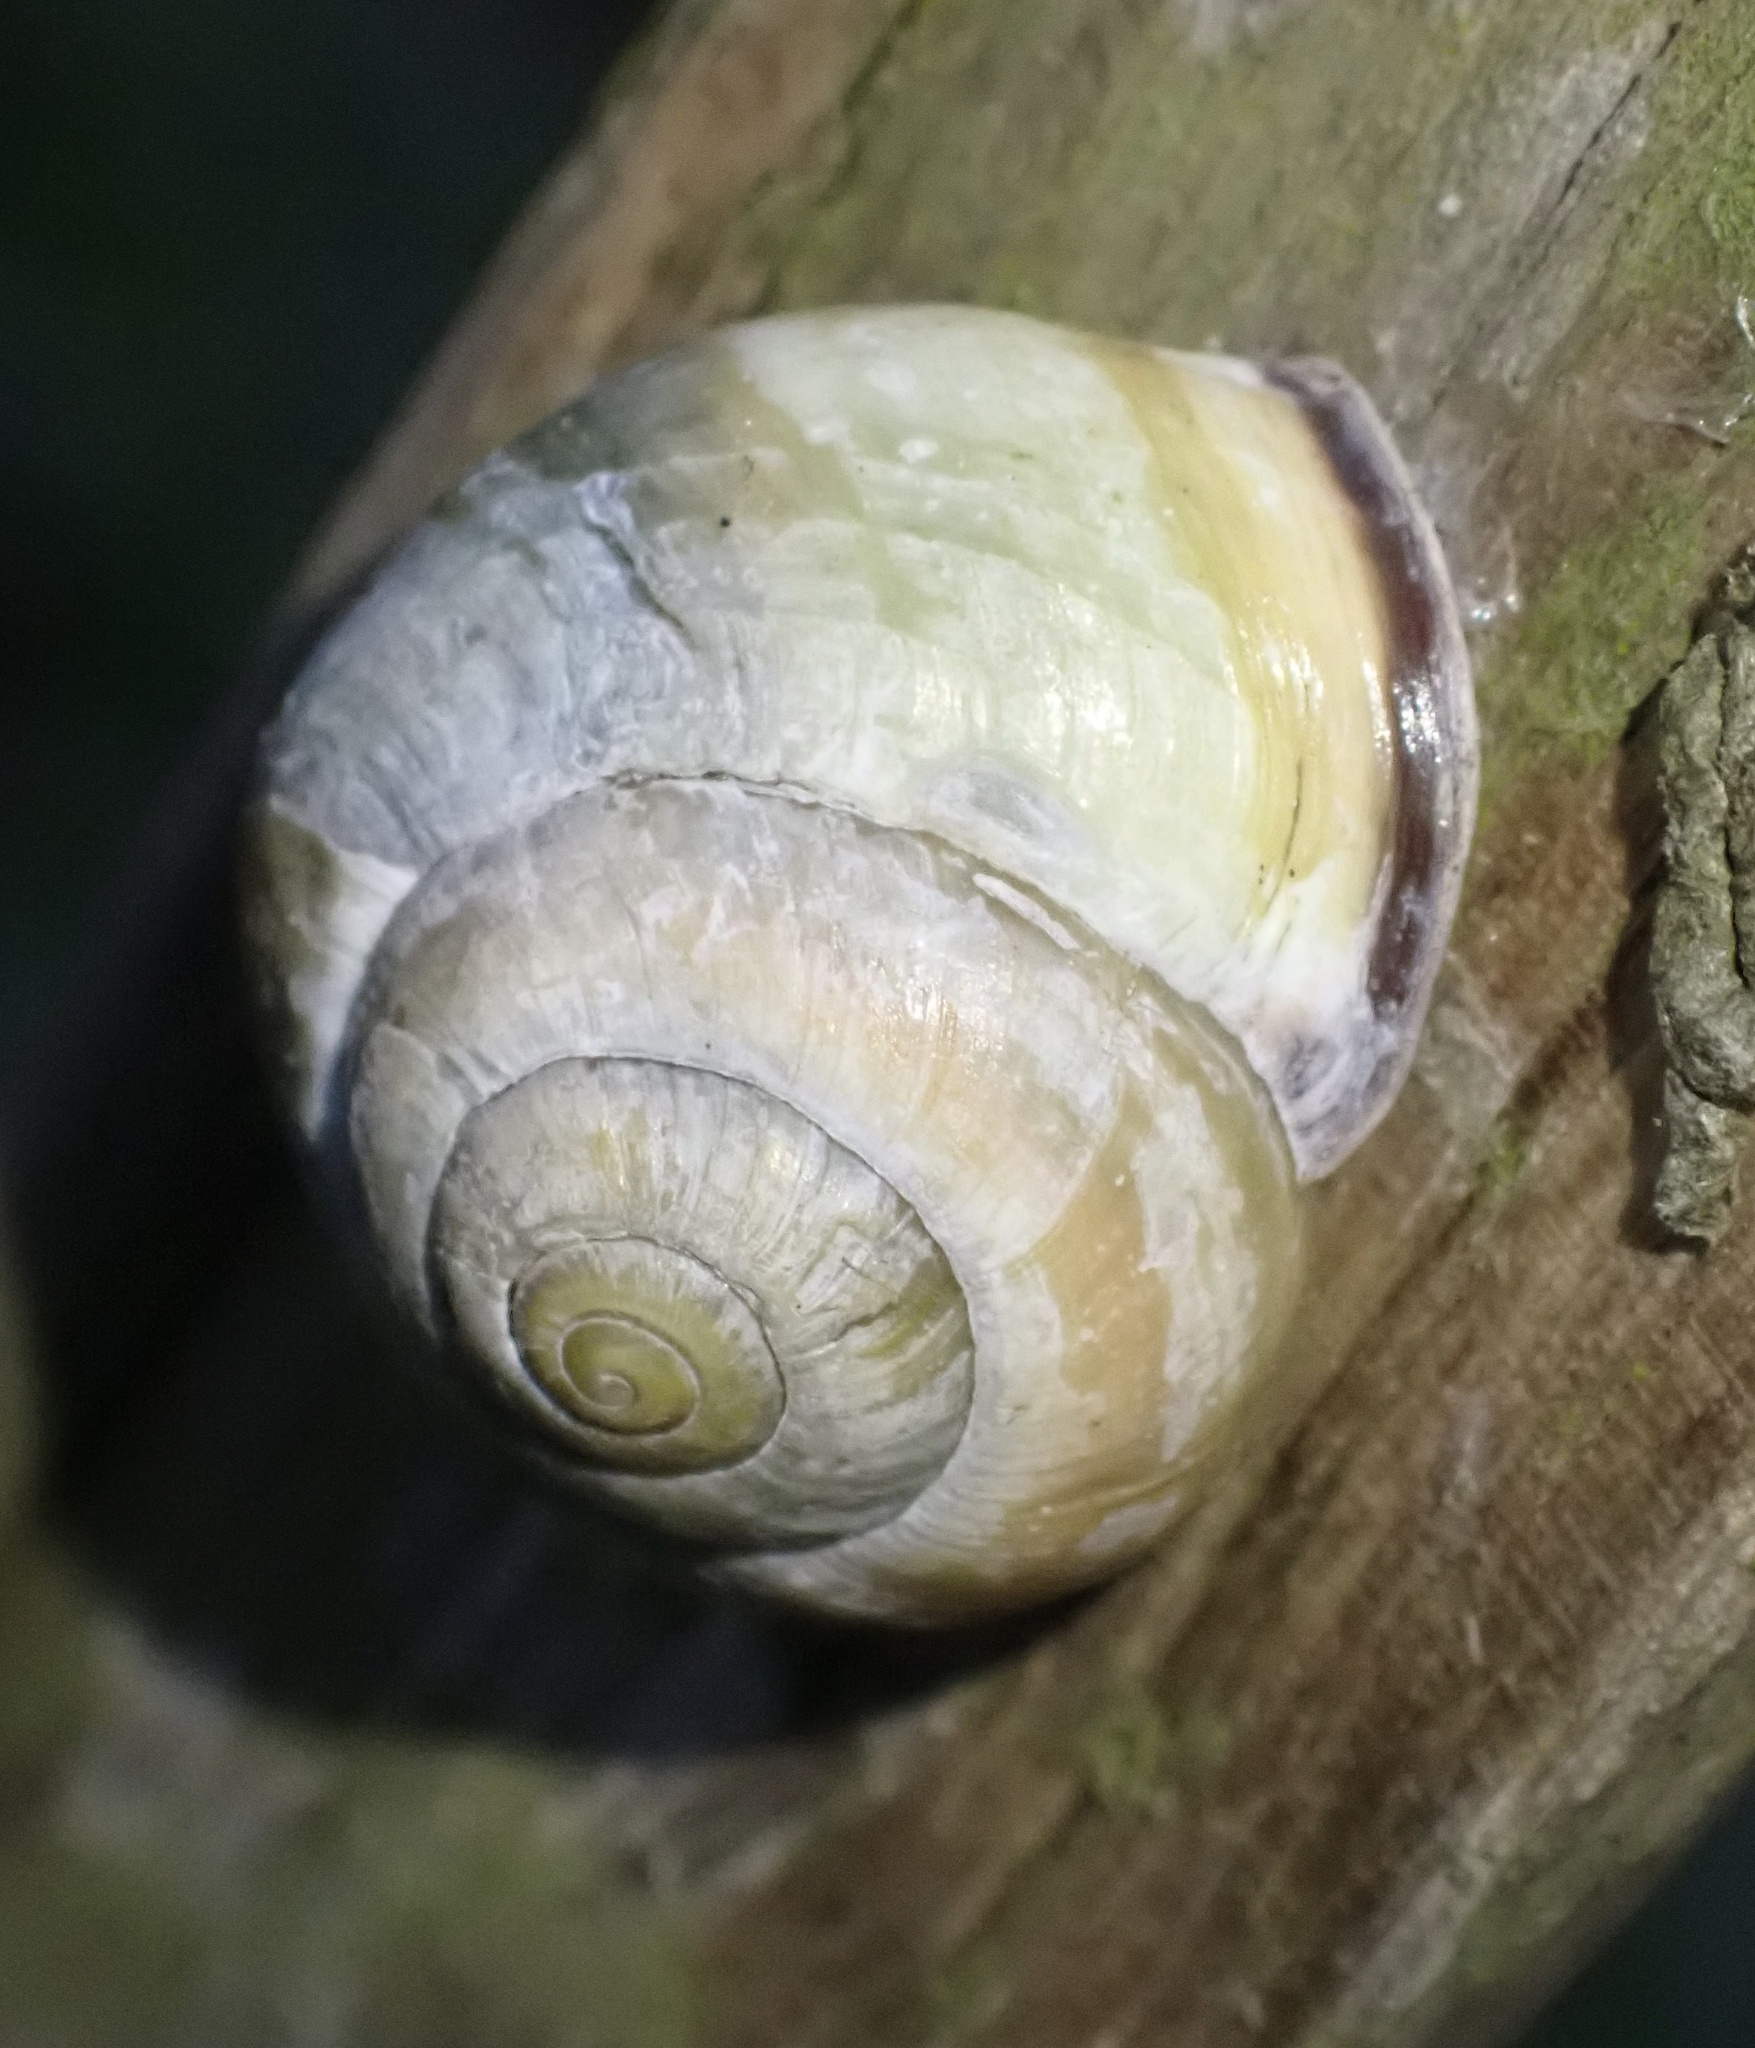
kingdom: Animalia
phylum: Mollusca
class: Gastropoda
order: Stylommatophora
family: Helicidae
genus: Cepaea
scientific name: Cepaea nemoralis
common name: Grovesnail
